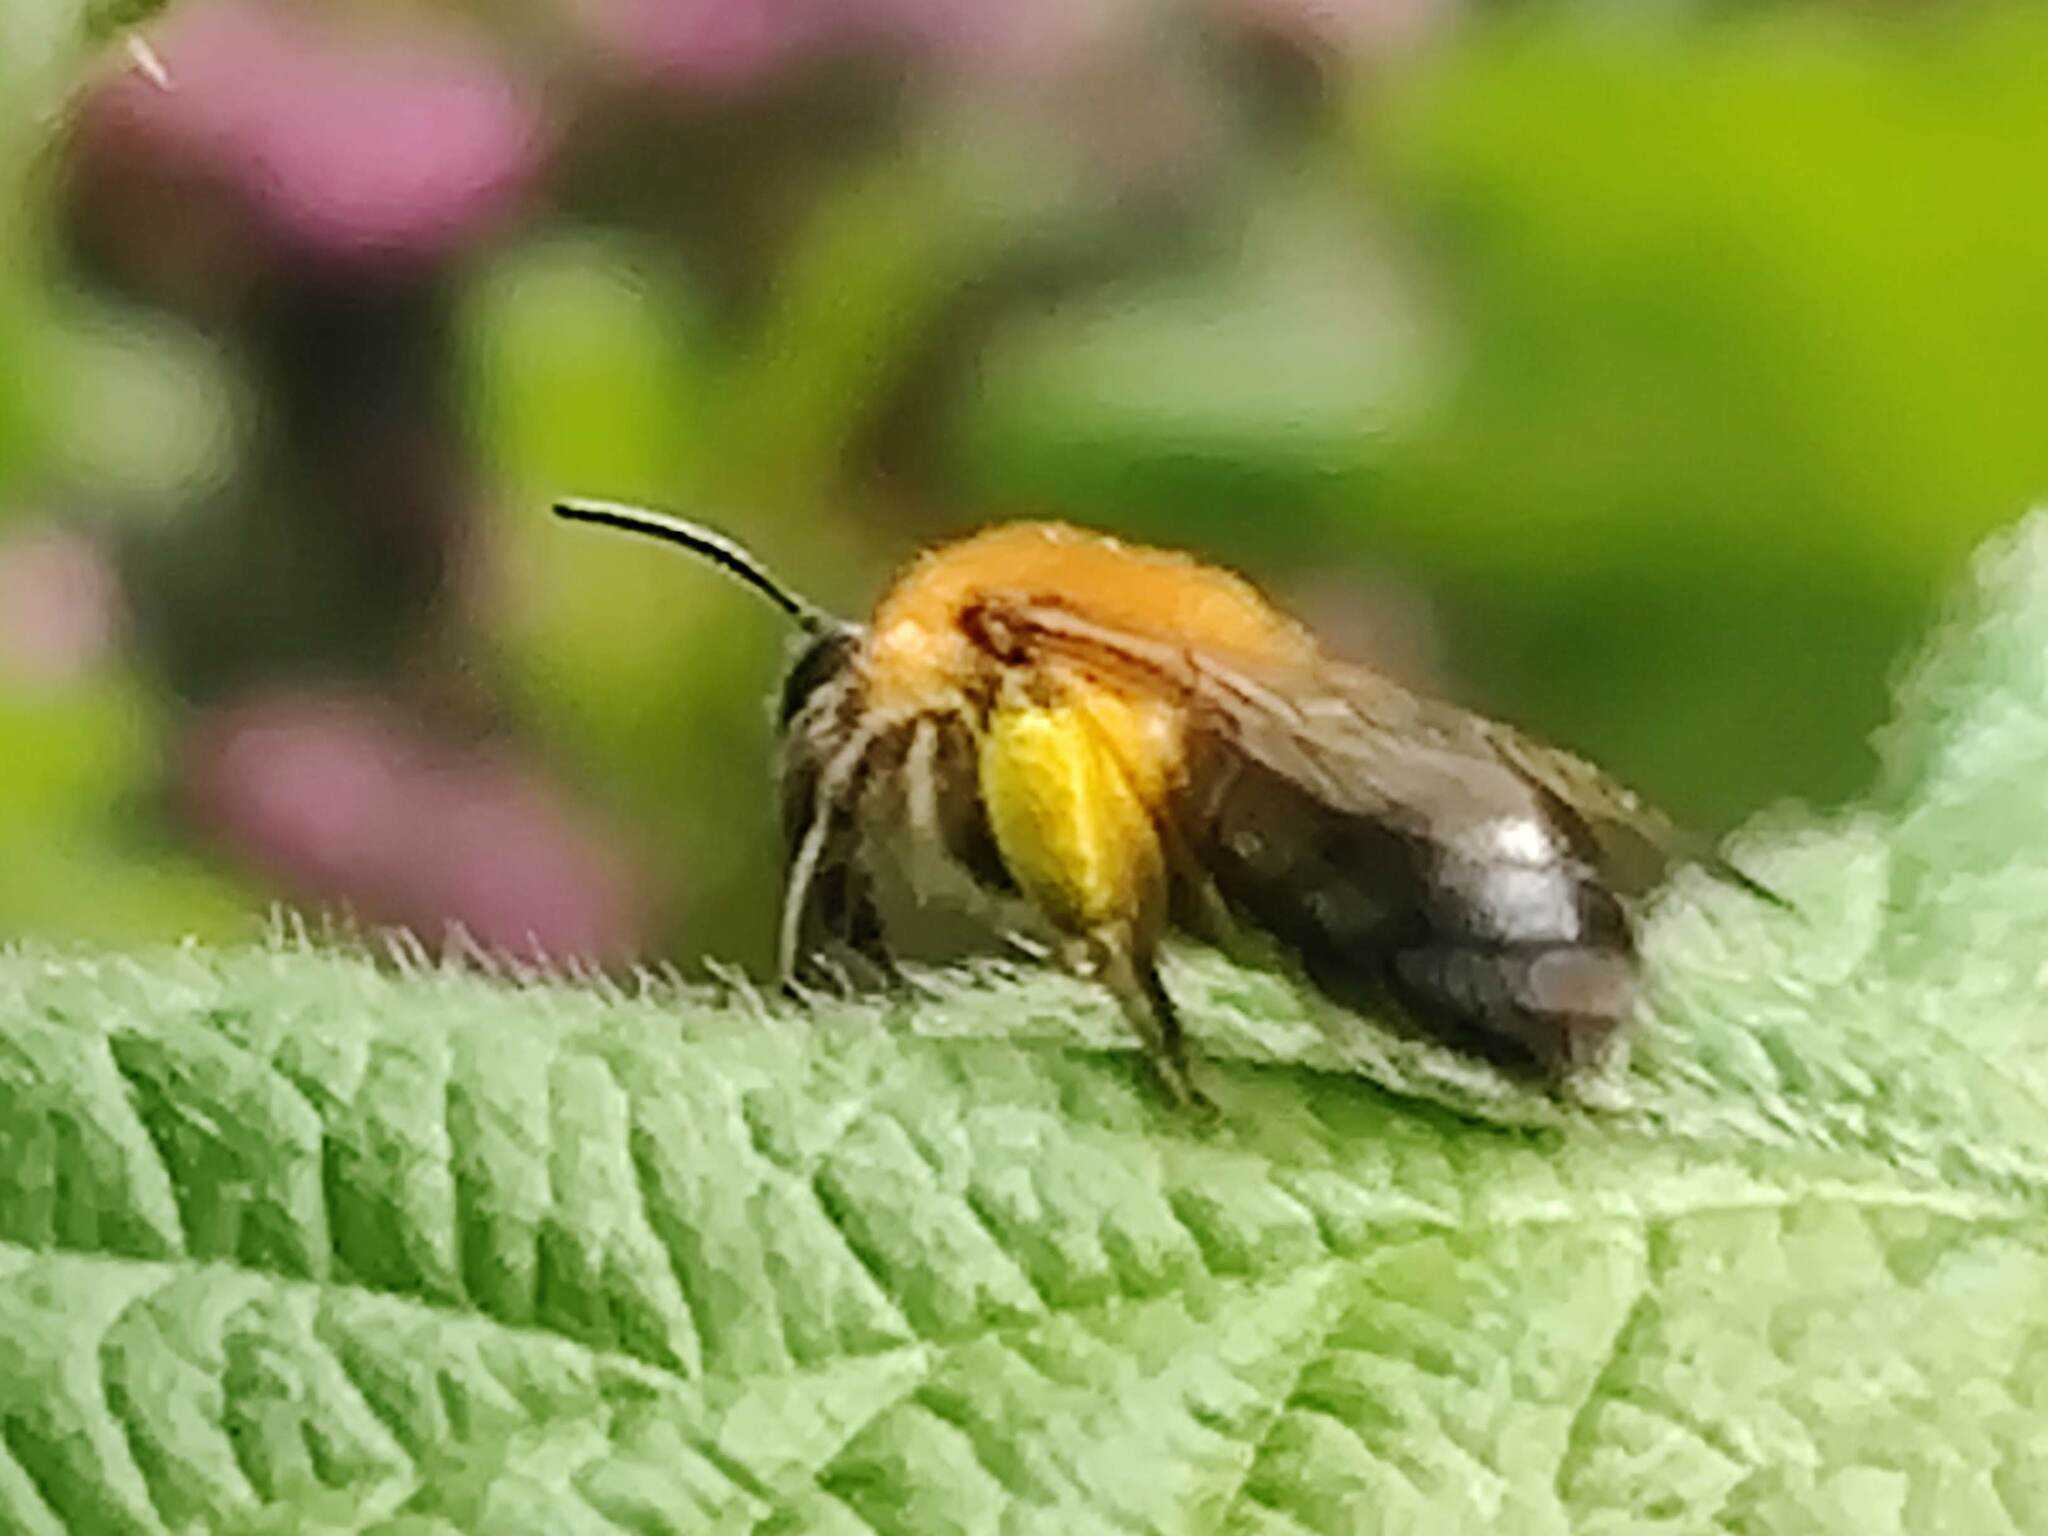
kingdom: Animalia
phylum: Arthropoda
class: Insecta
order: Hymenoptera
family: Andrenidae
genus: Andrena
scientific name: Andrena nitida
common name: Grey-patched mining bee
